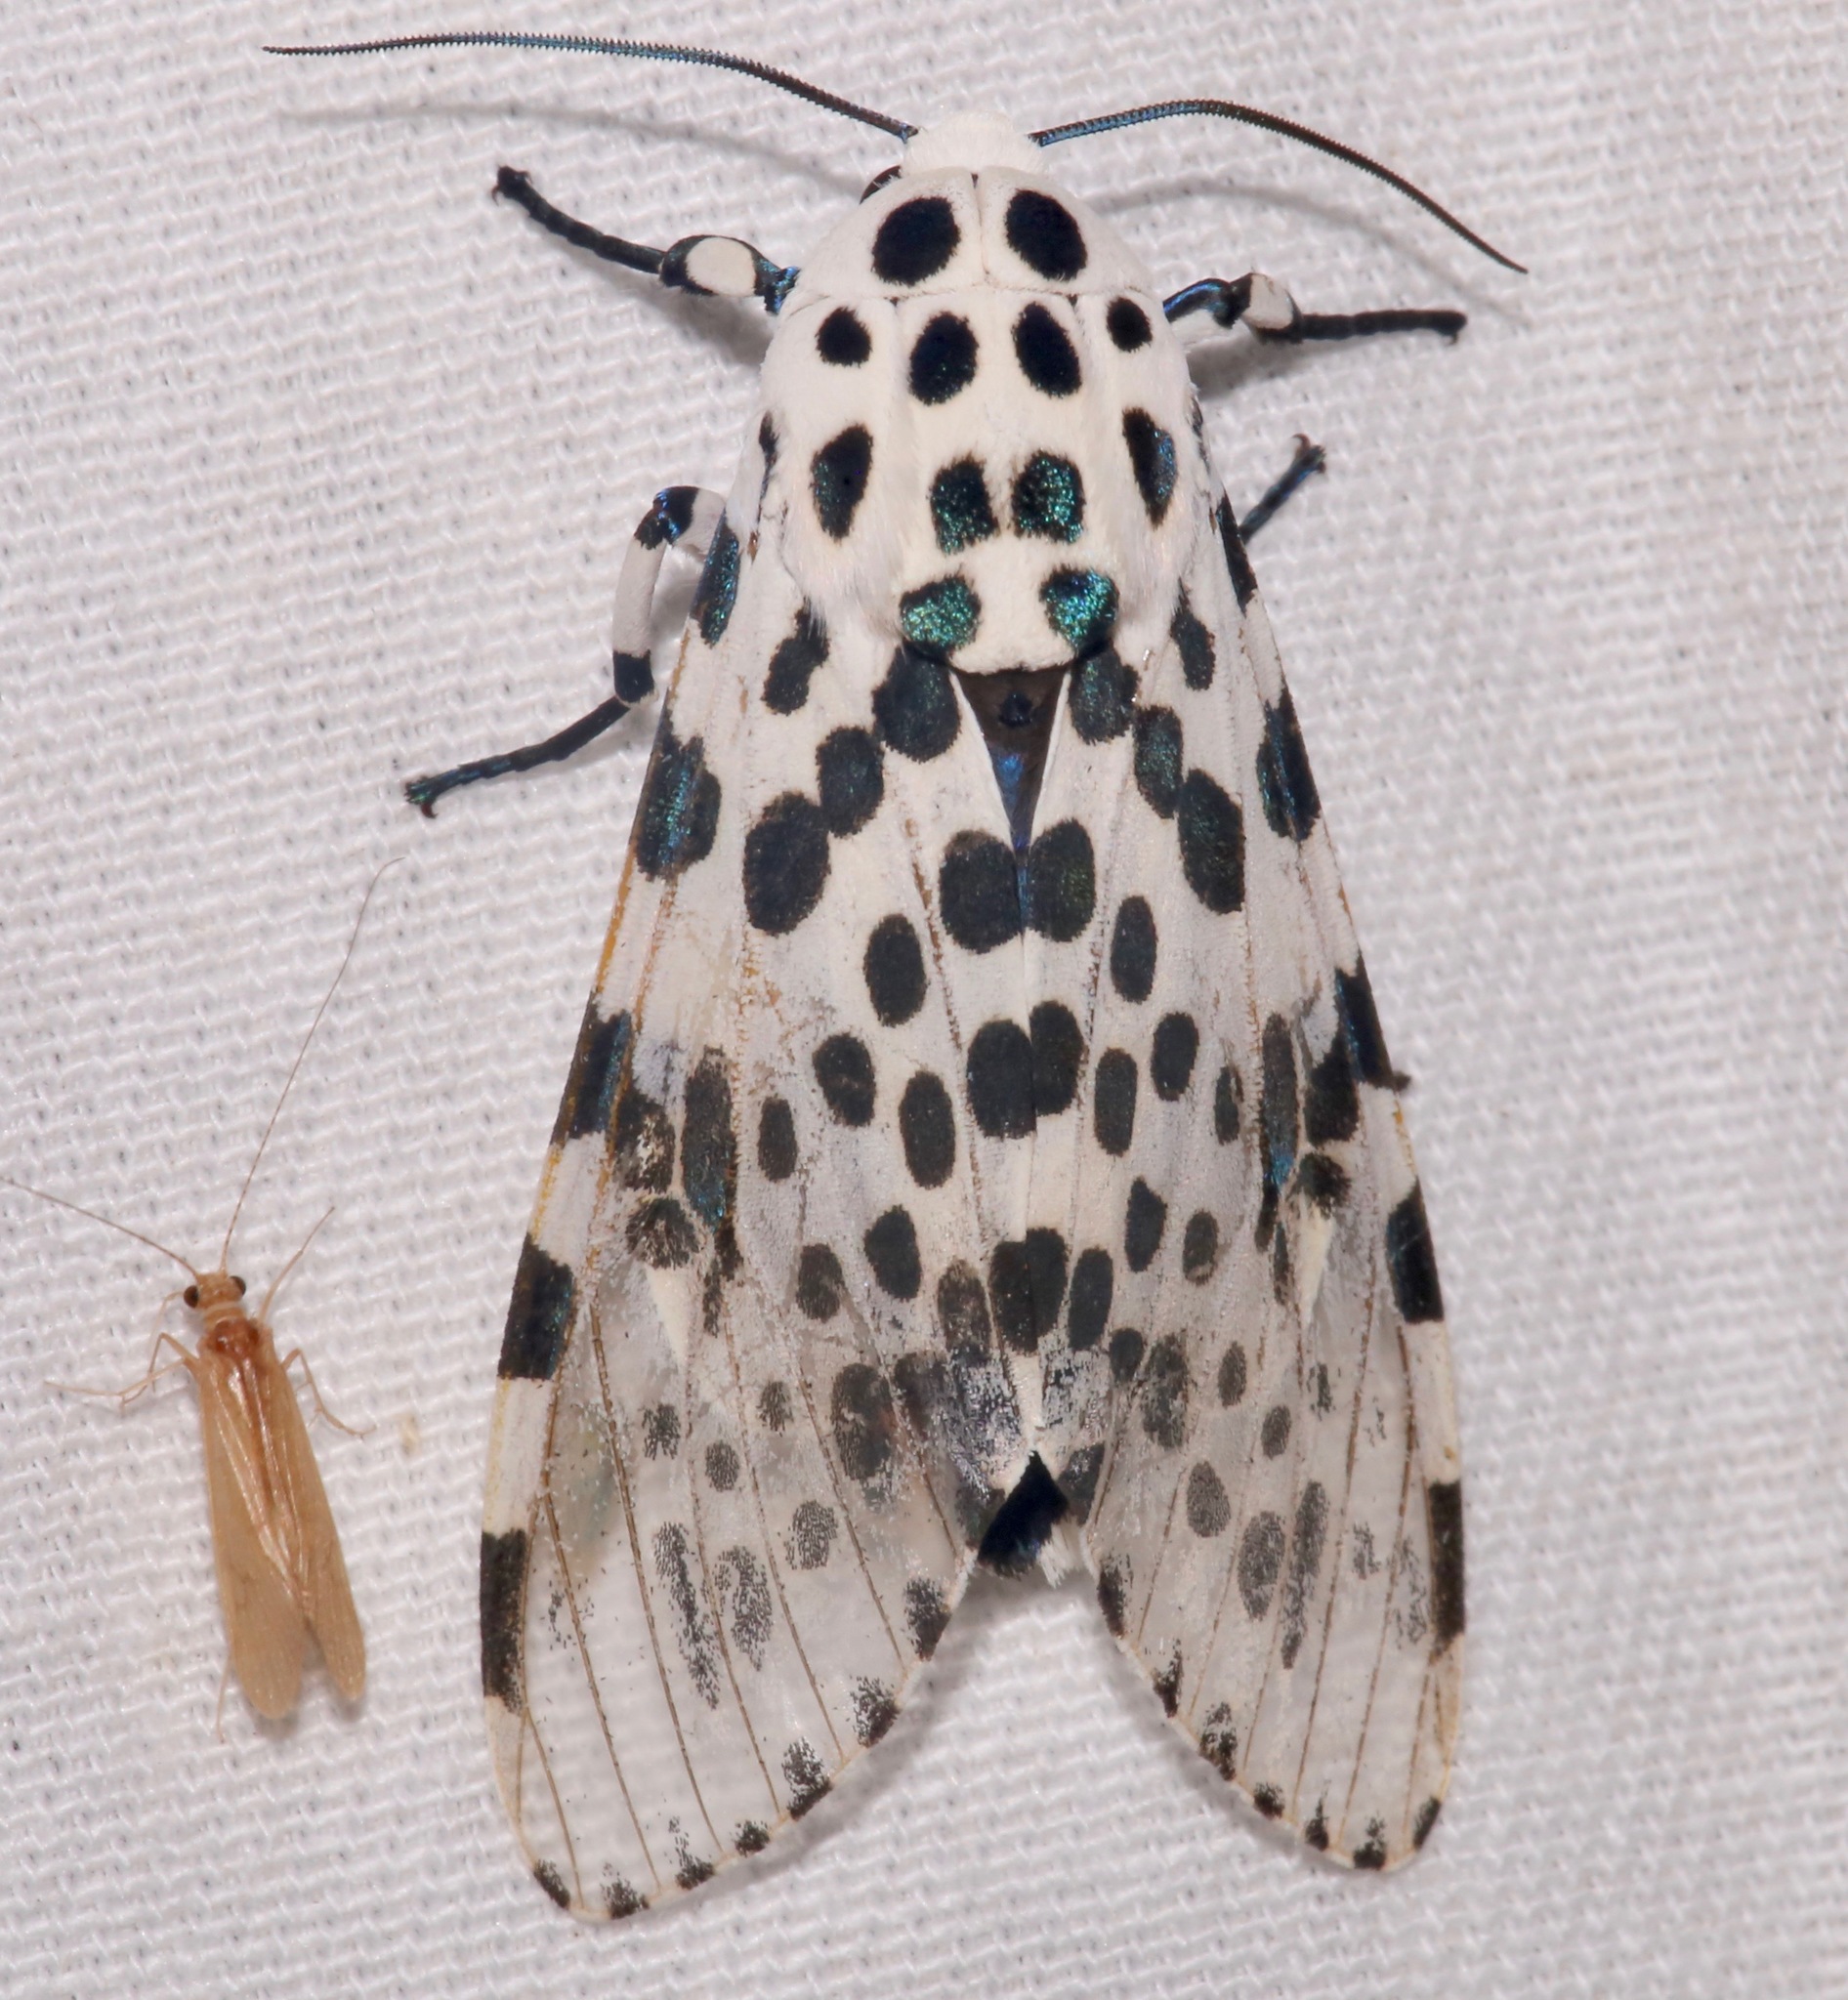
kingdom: Animalia
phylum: Arthropoda
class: Insecta
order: Lepidoptera
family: Erebidae
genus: Hypercompe
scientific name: Hypercompe scribonia
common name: Giant leopard moth
